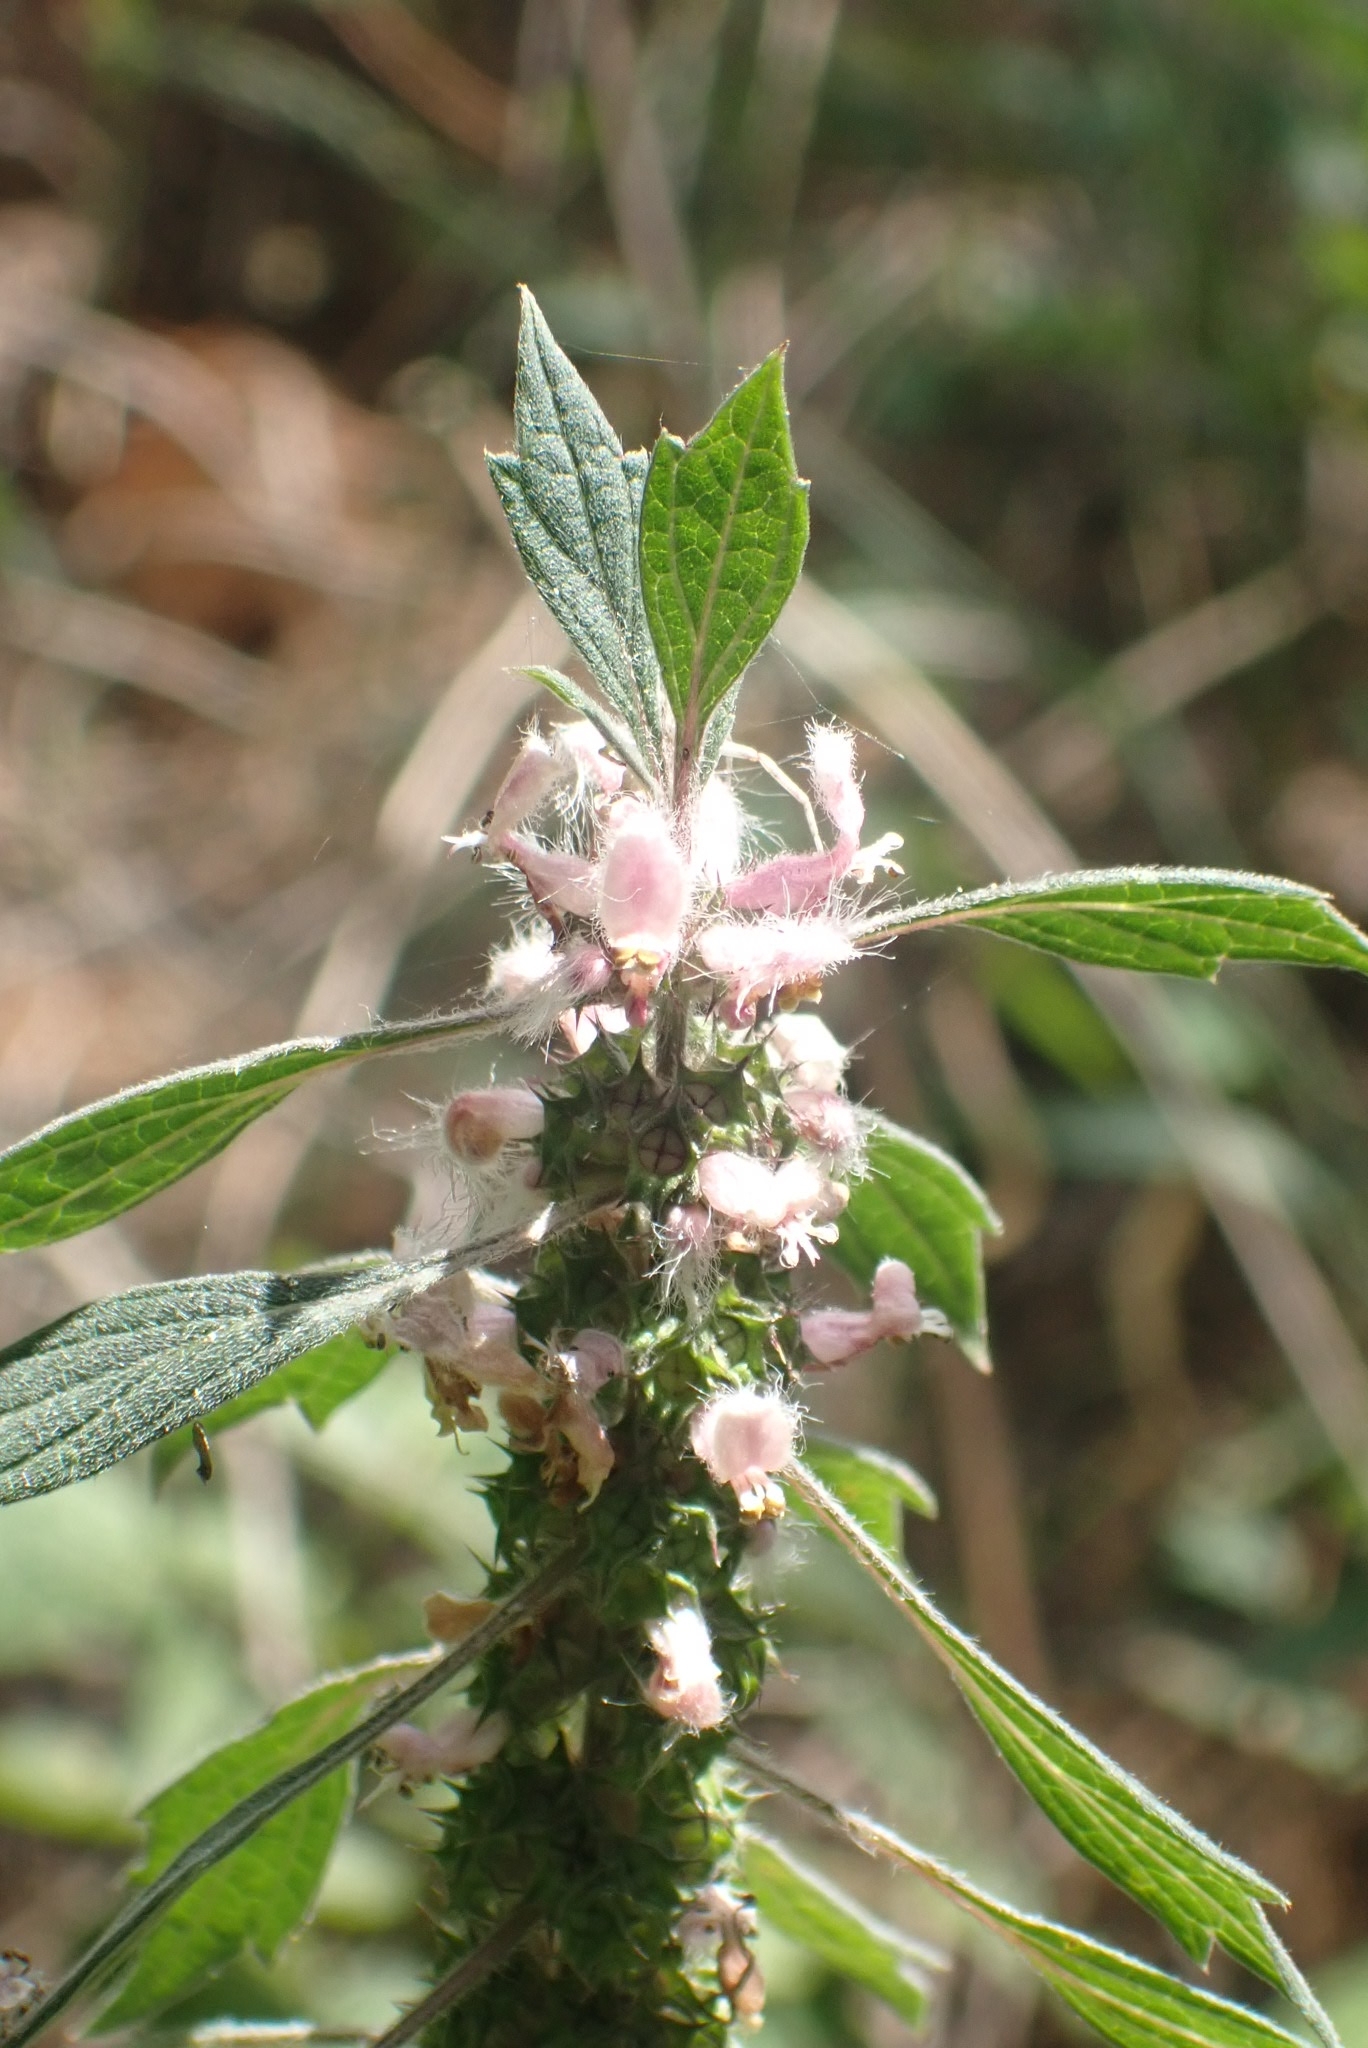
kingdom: Plantae
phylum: Tracheophyta
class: Magnoliopsida
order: Lamiales
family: Lamiaceae
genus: Leonurus
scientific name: Leonurus quinquelobatus
